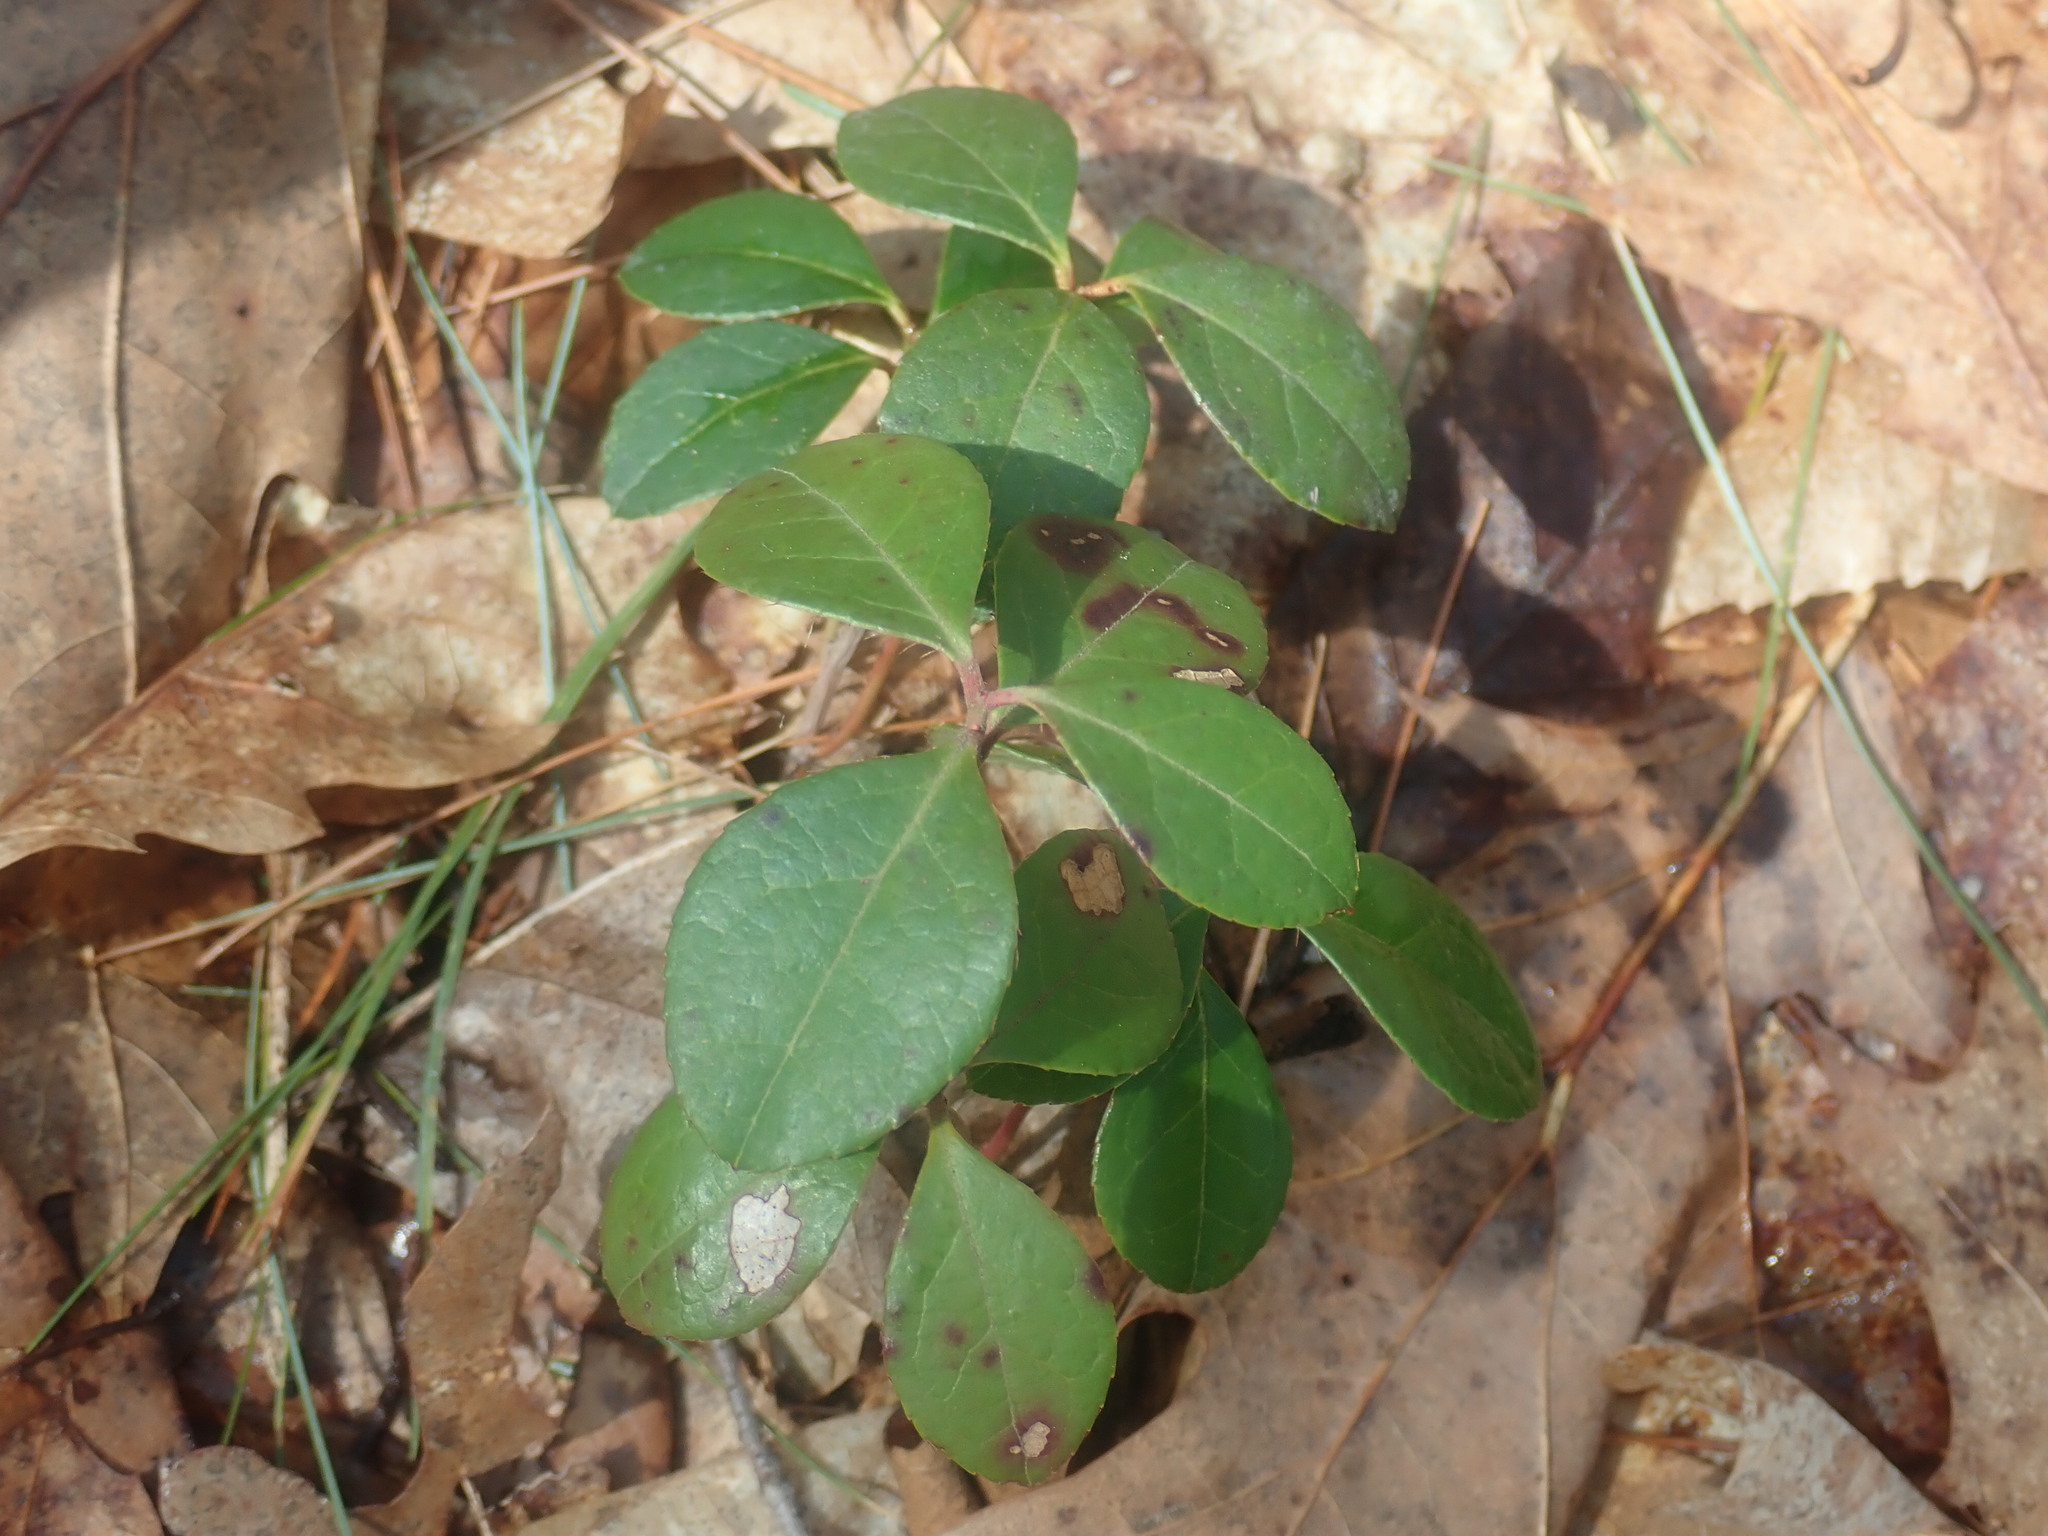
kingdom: Plantae
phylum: Tracheophyta
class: Magnoliopsida
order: Ericales
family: Ericaceae
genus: Gaultheria
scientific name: Gaultheria procumbens
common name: Checkerberry
